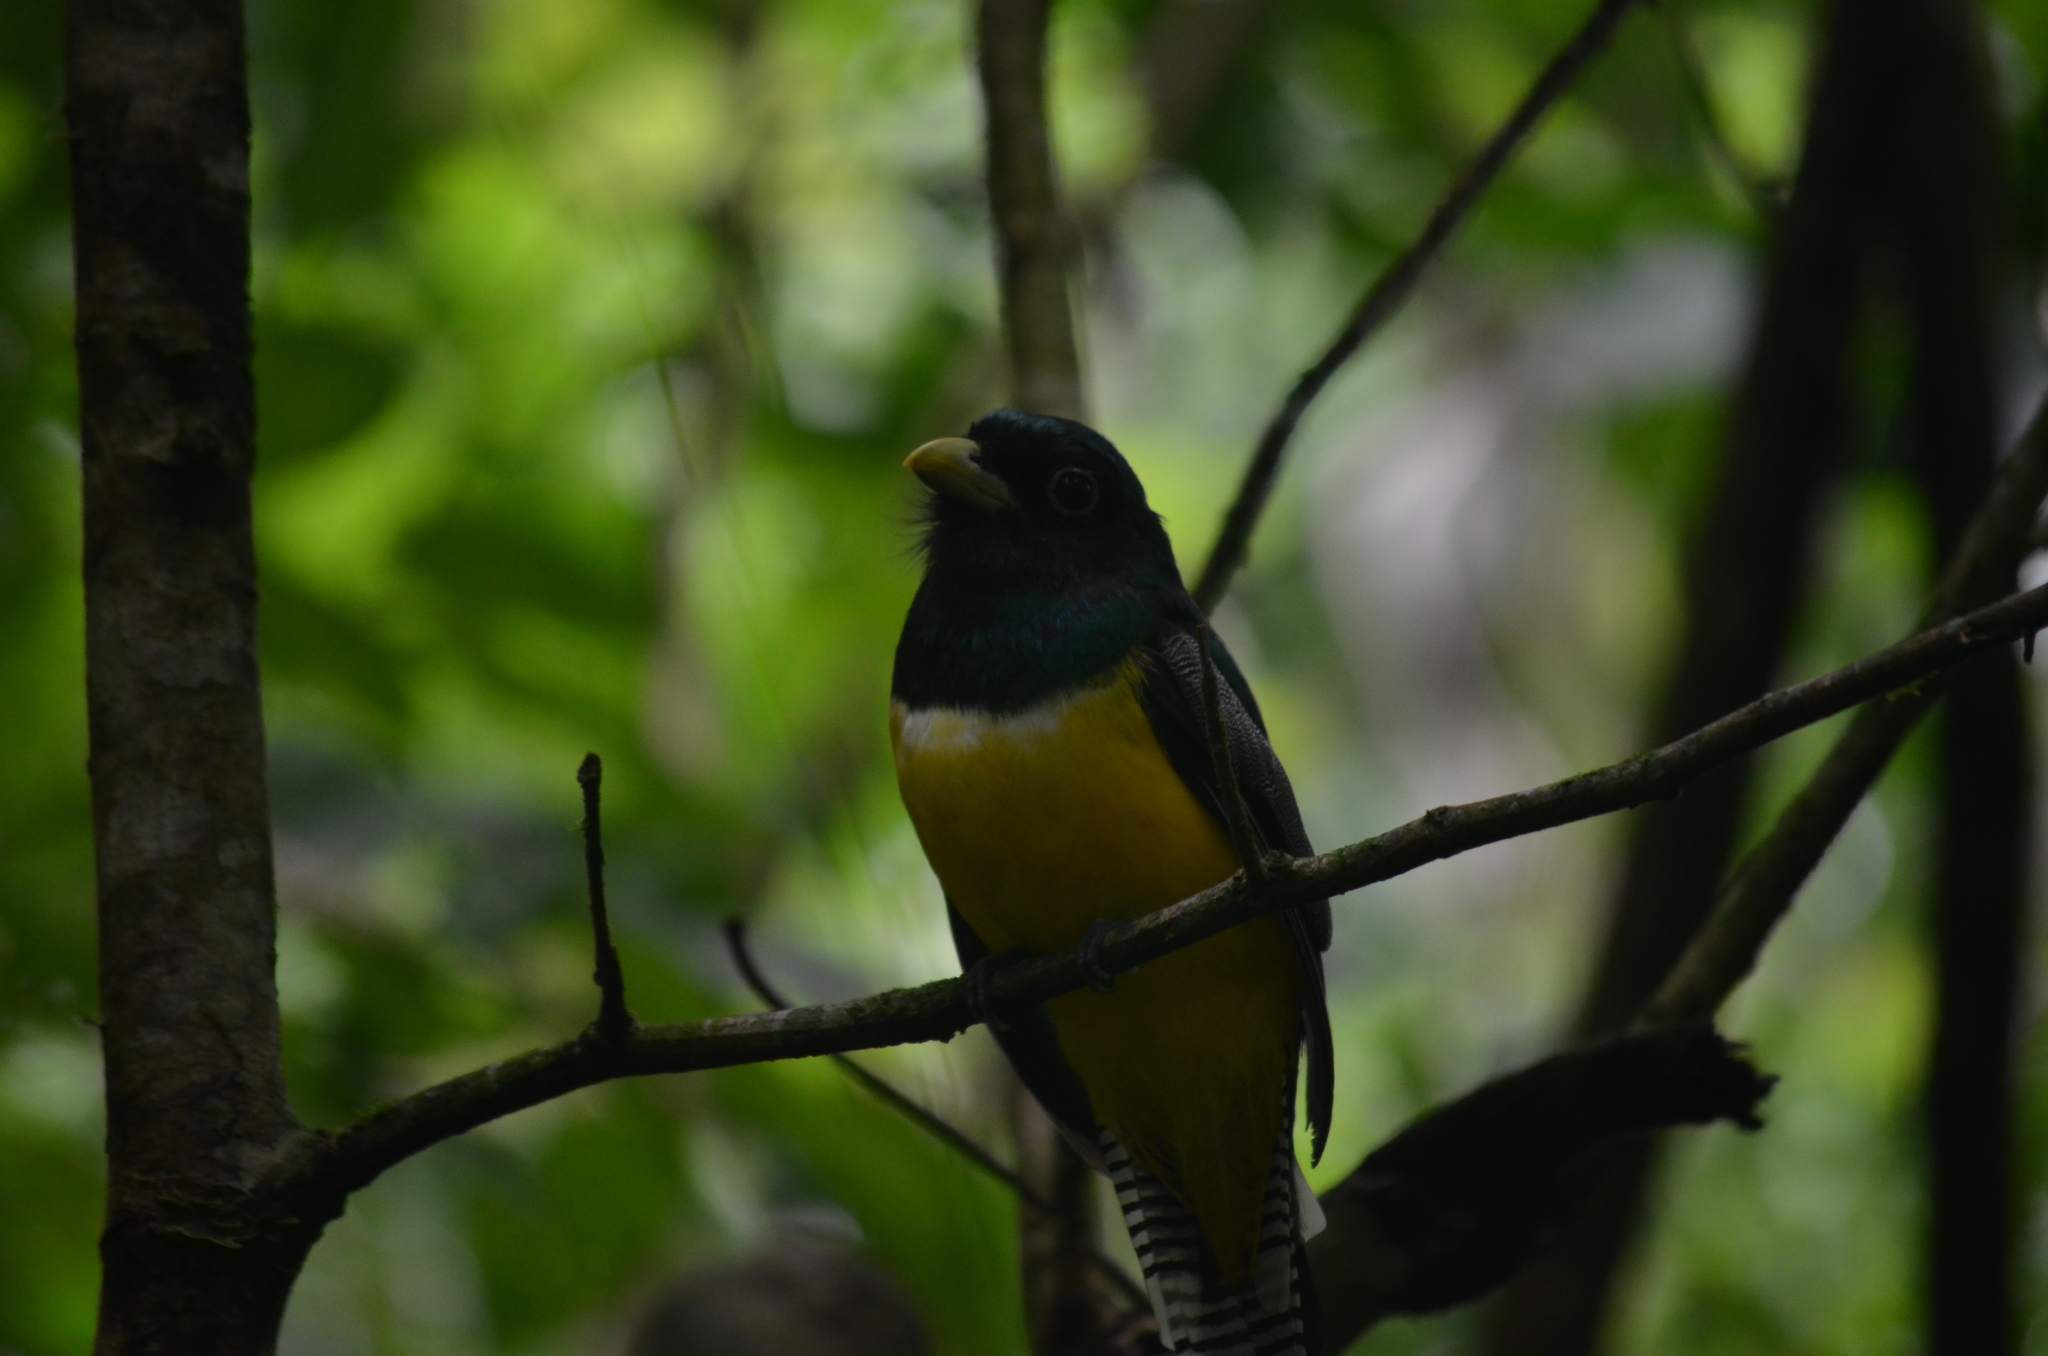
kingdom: Animalia
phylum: Chordata
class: Aves
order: Trogoniformes
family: Trogonidae
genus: Trogon
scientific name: Trogon rufus
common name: Black-throated trogon
